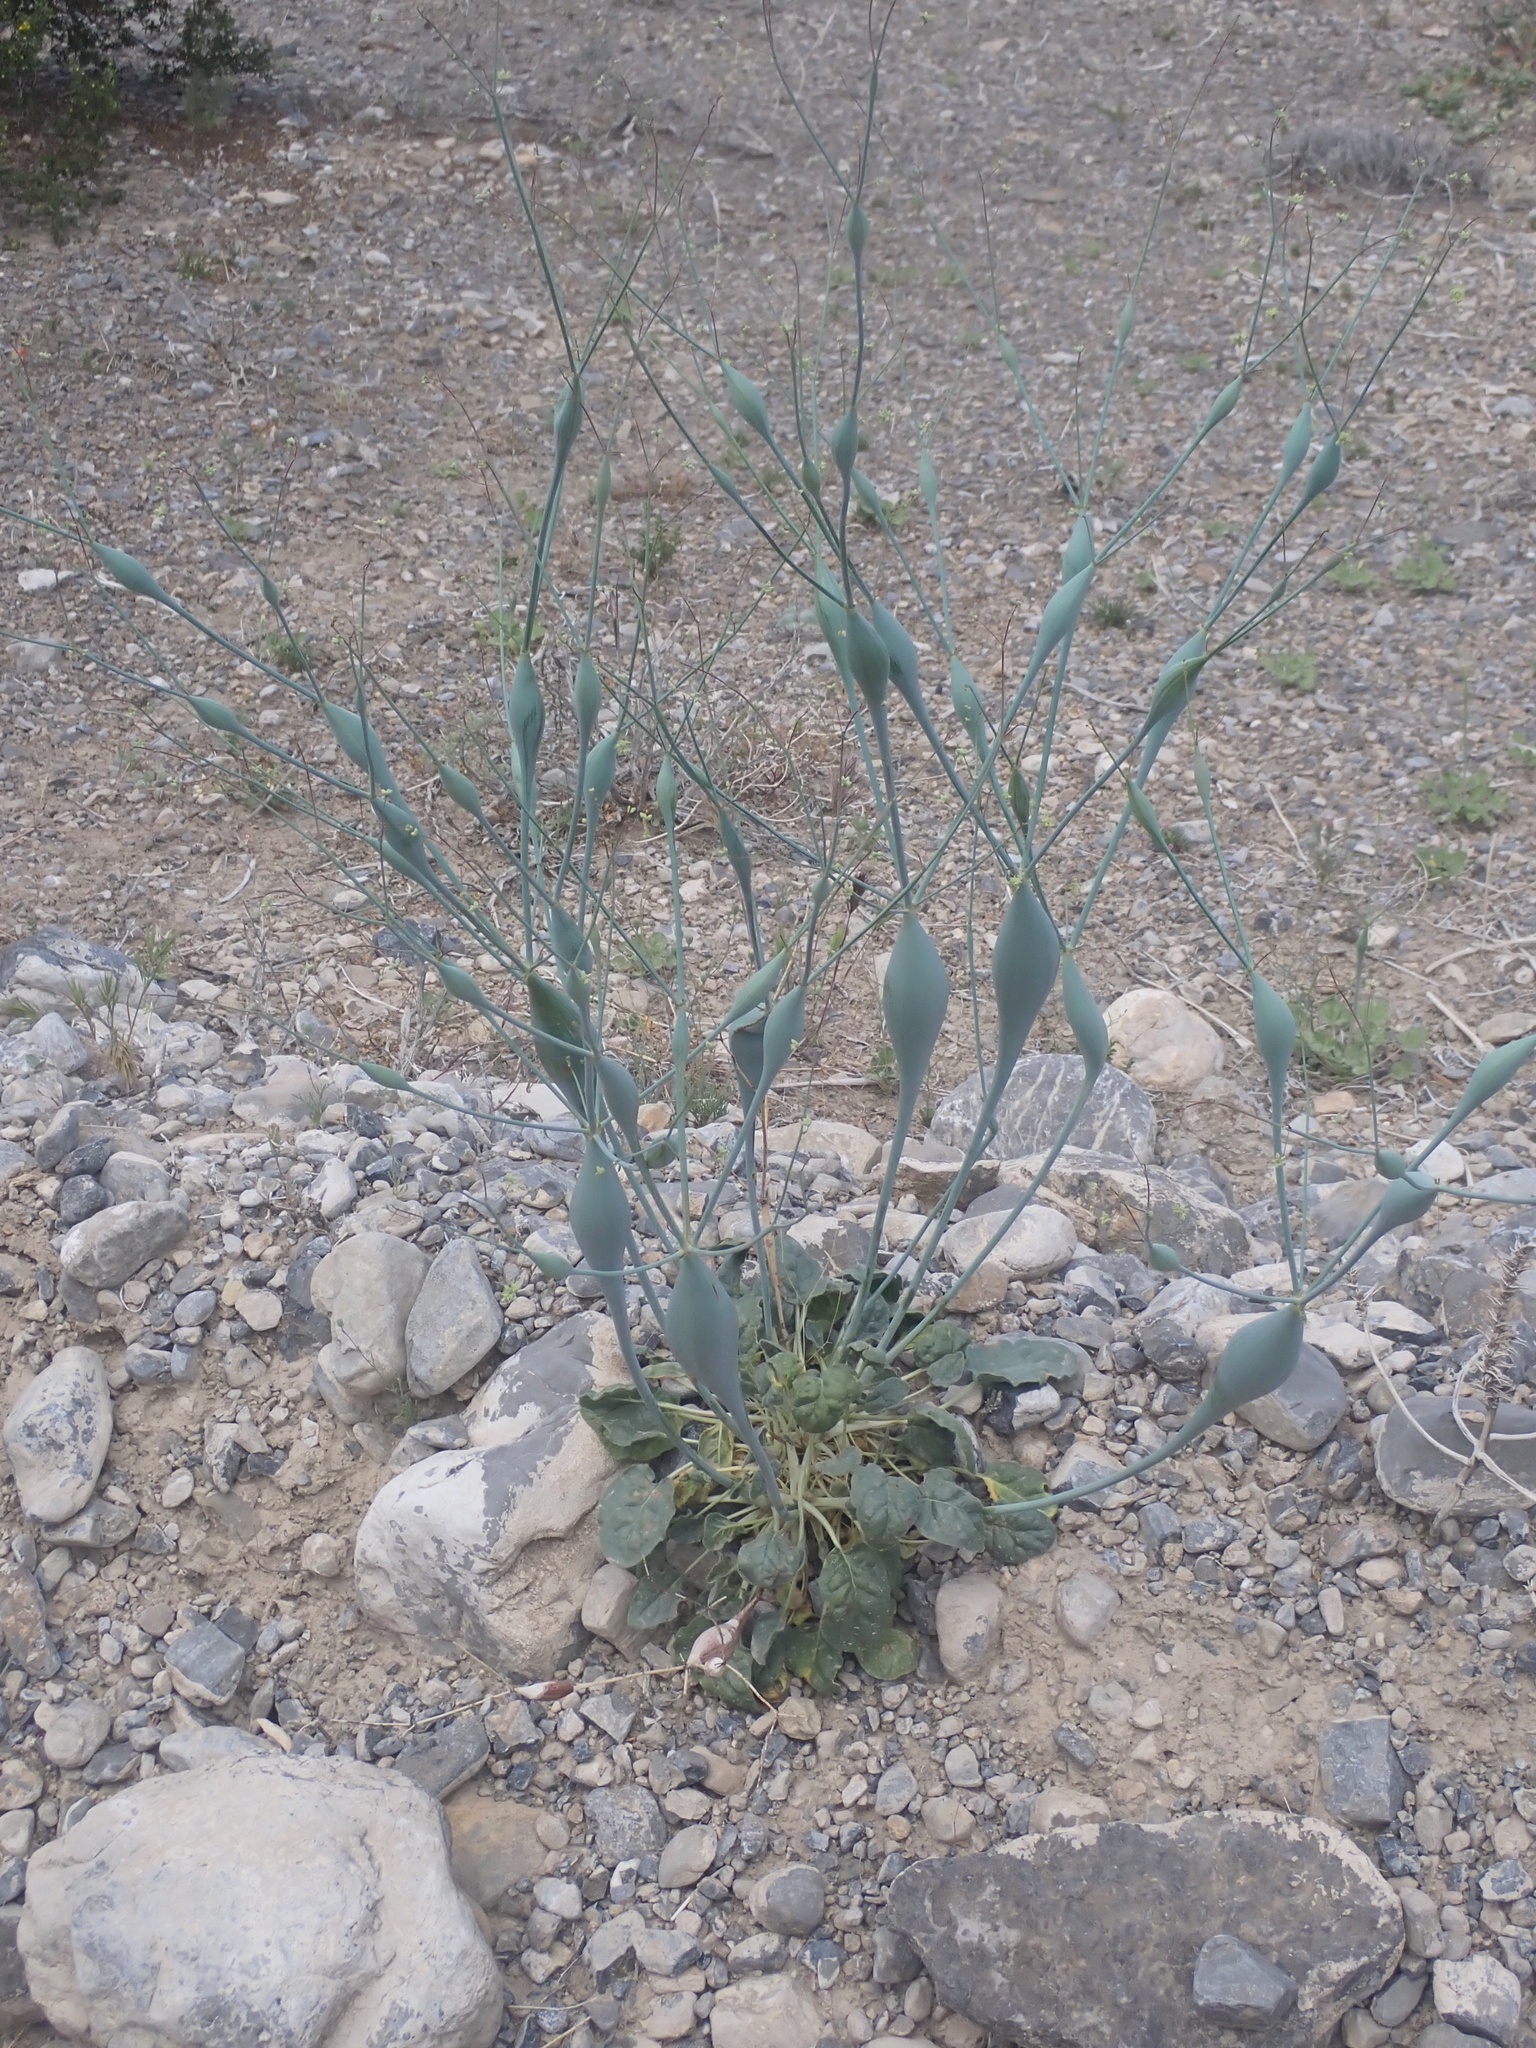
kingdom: Plantae
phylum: Tracheophyta
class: Magnoliopsida
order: Caryophyllales
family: Polygonaceae
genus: Eriogonum
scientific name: Eriogonum inflatum
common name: Desert trumpet
